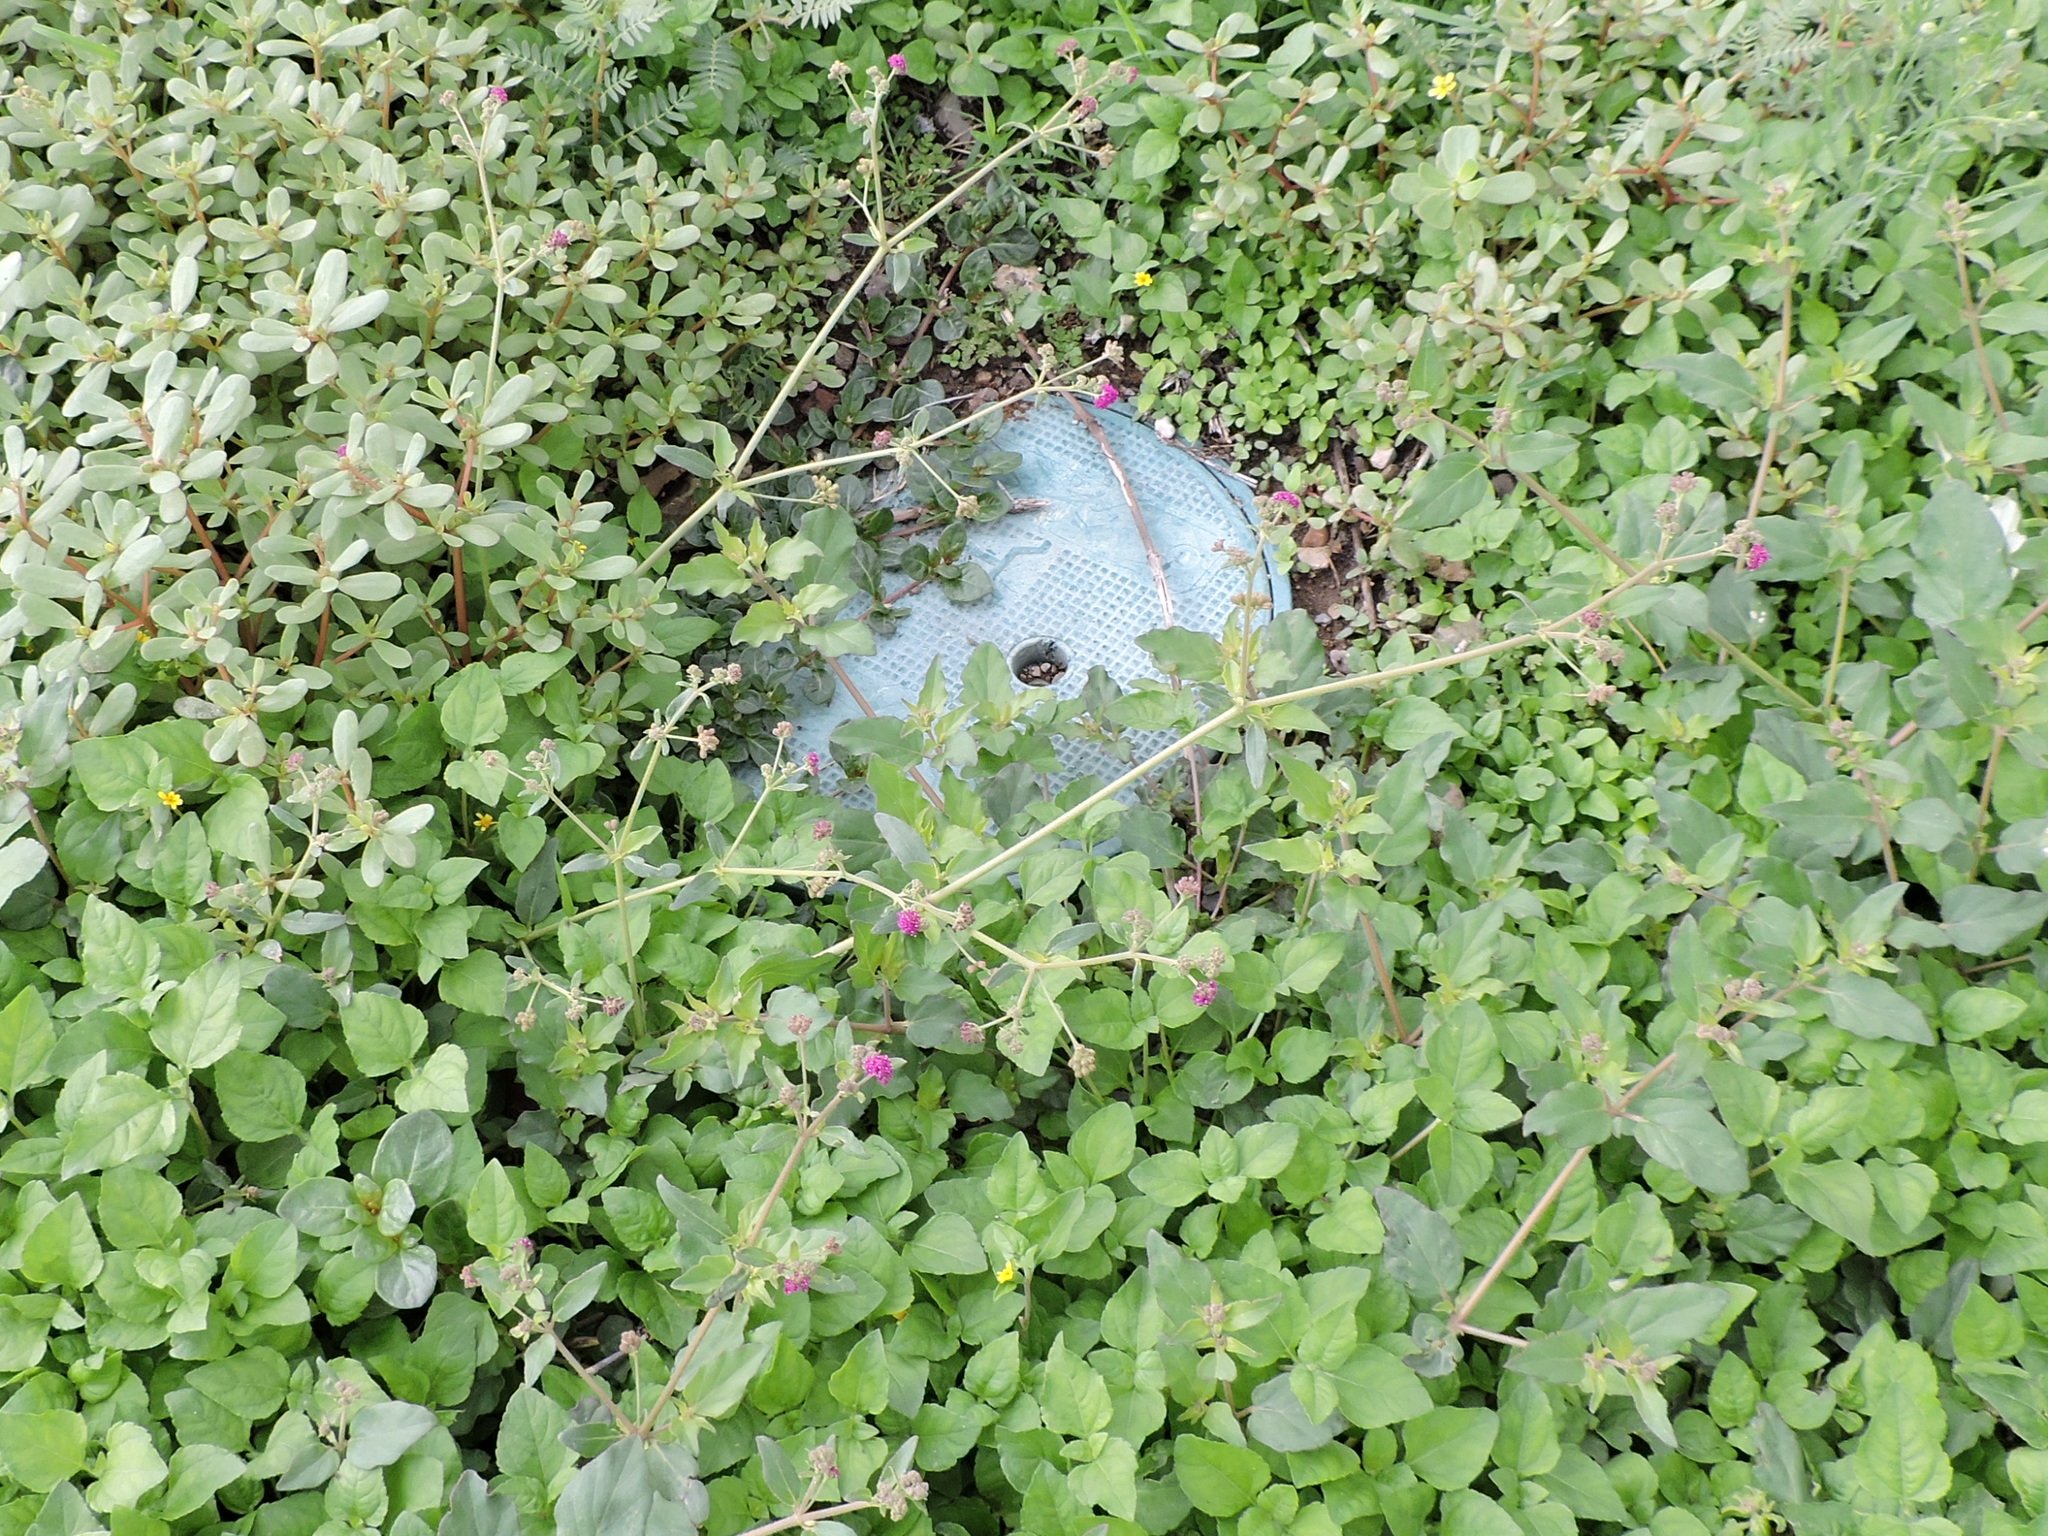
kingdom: Plantae
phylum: Tracheophyta
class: Magnoliopsida
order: Caryophyllales
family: Nyctaginaceae
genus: Boerhavia
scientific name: Boerhavia coccinea
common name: Scarlet spiderling
